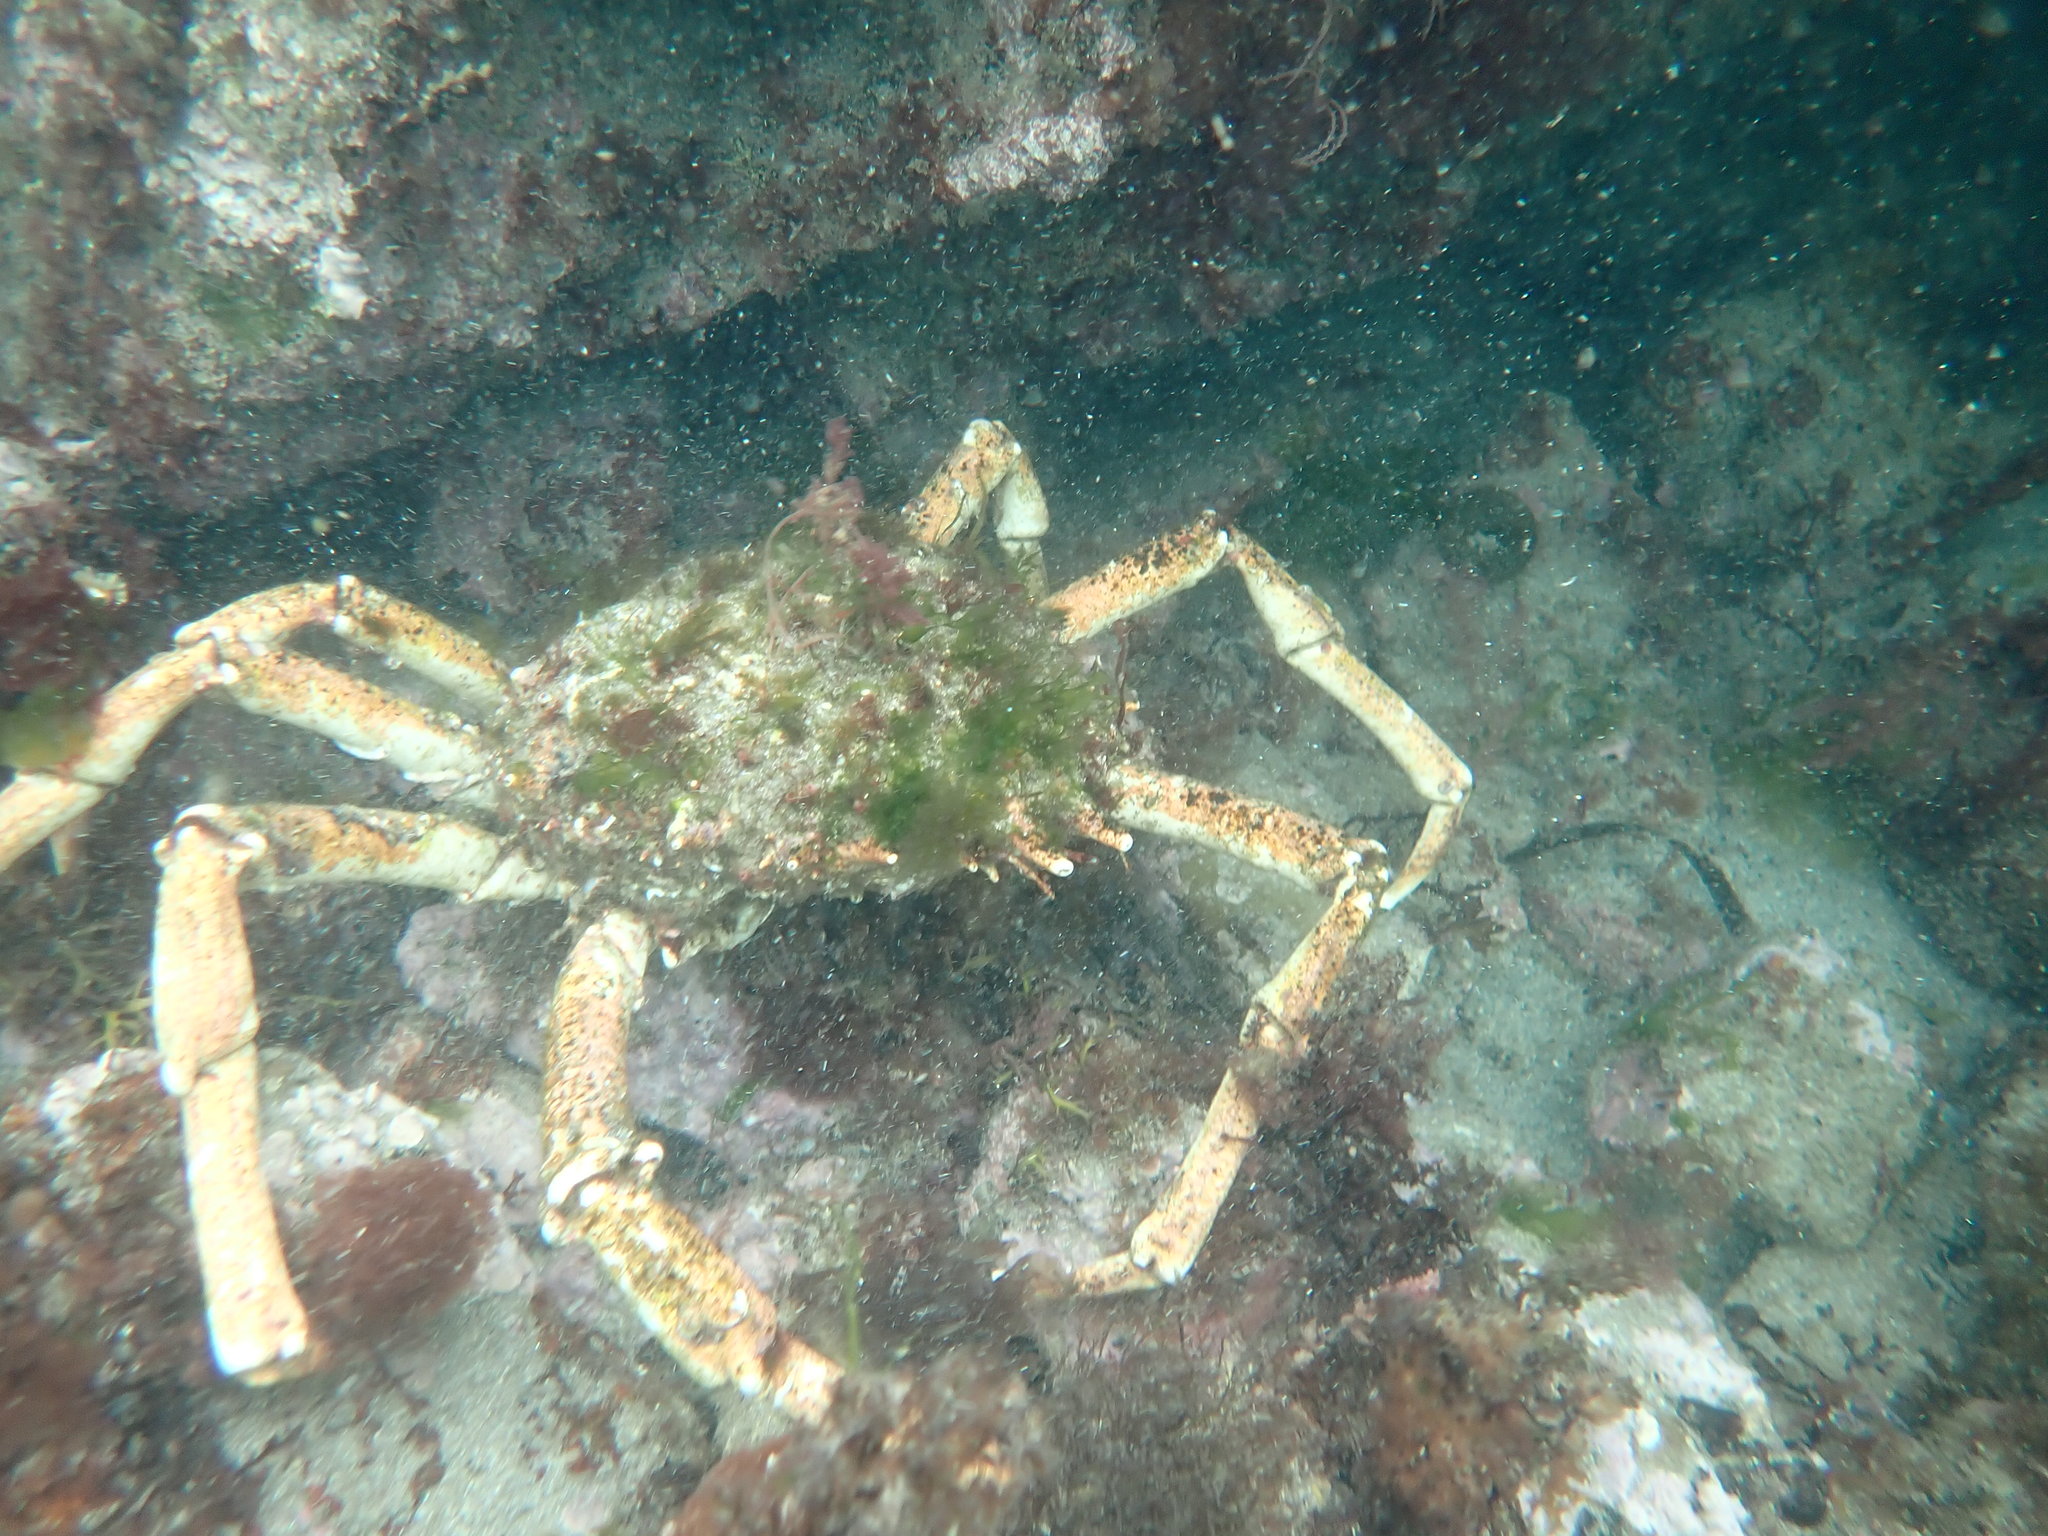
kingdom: Animalia
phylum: Arthropoda
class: Malacostraca
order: Decapoda
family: Majidae
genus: Maja
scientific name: Maja brachydactyla
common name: Common spider crab
